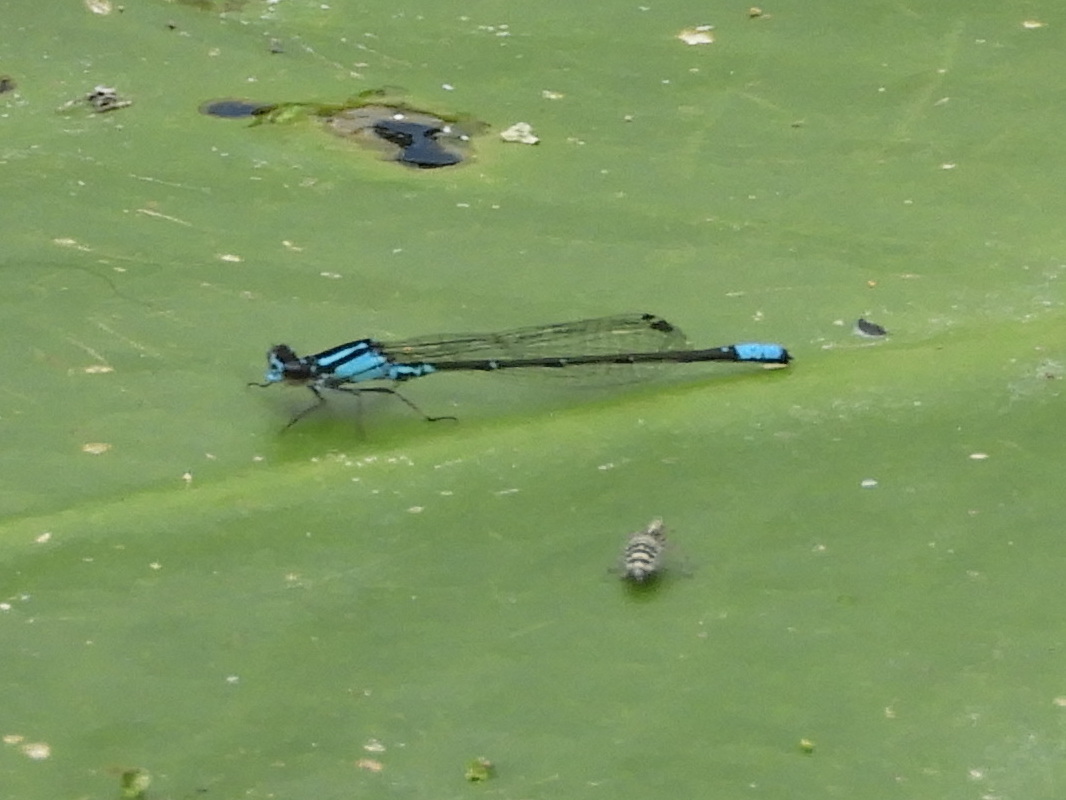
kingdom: Animalia
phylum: Arthropoda
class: Insecta
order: Odonata
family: Coenagrionidae
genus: Enallagma
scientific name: Enallagma geminatum
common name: Skimming bluet
